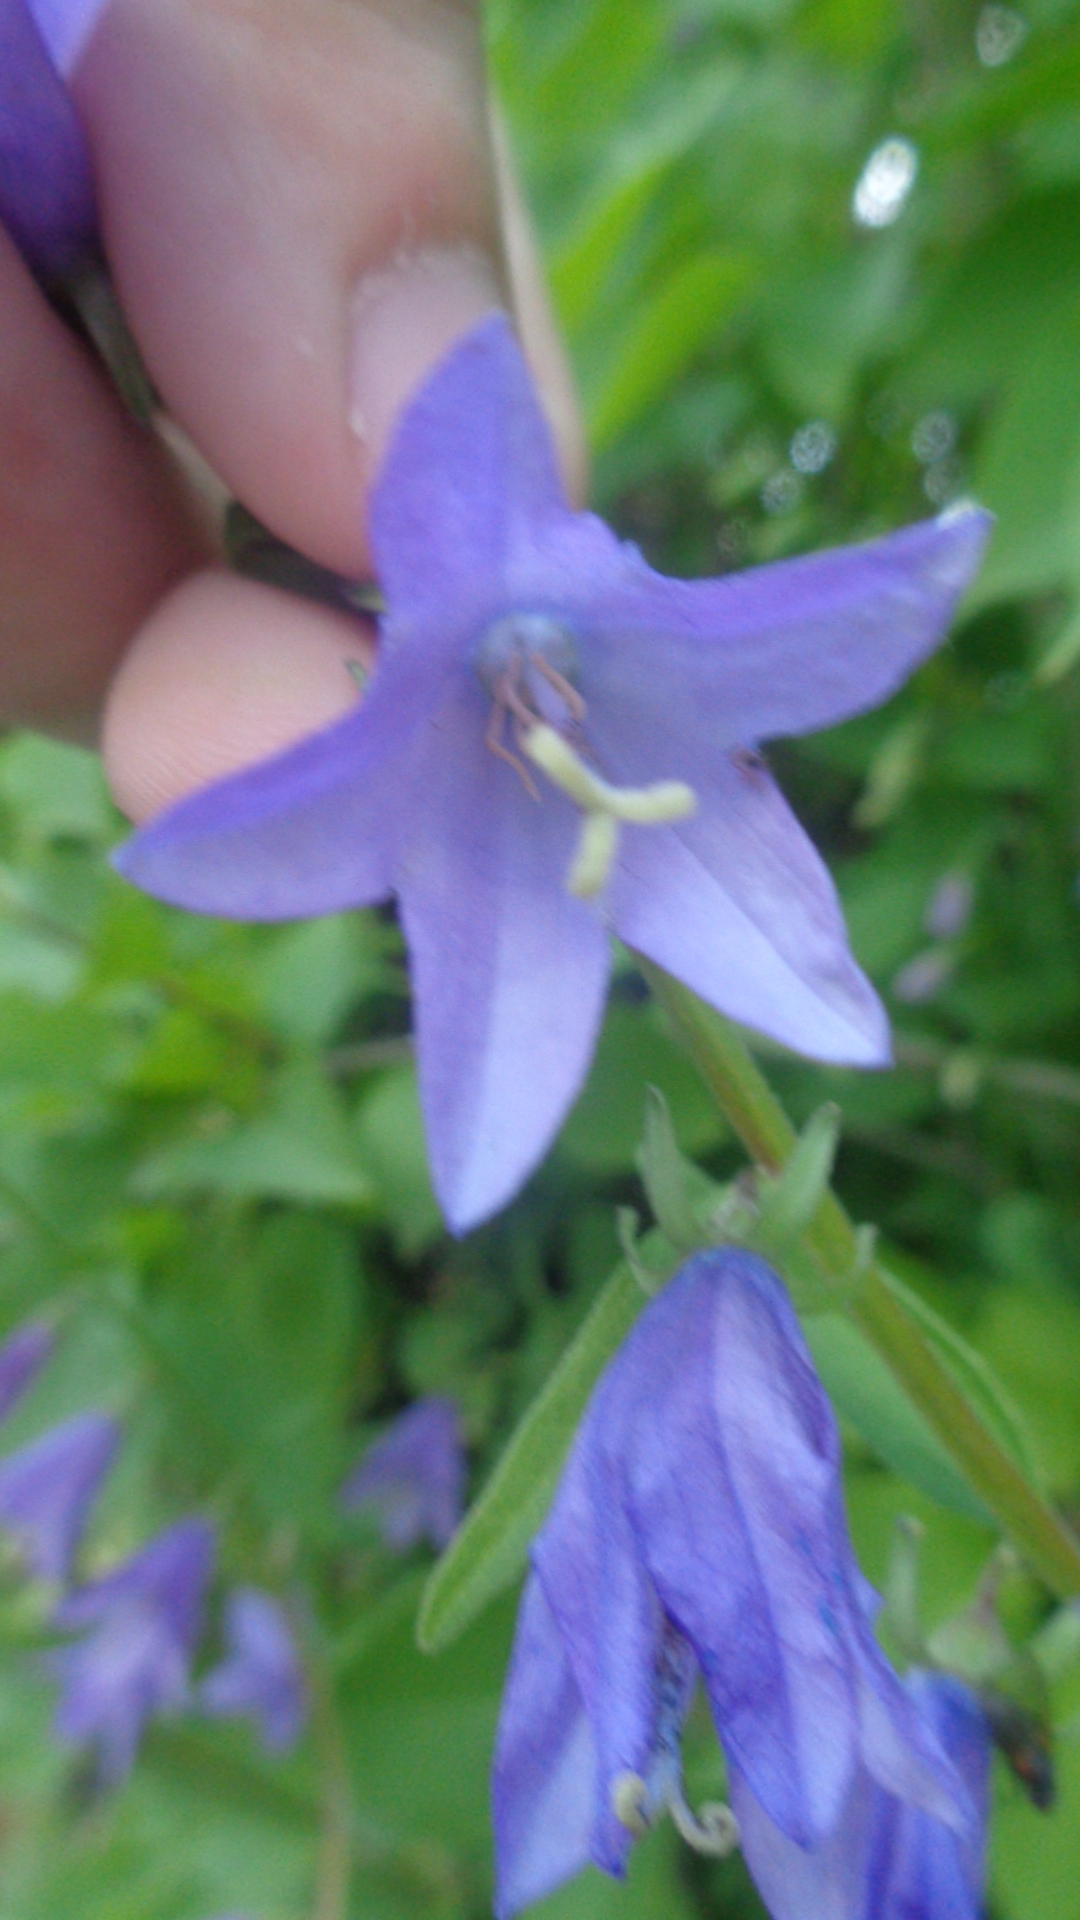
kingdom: Plantae
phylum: Tracheophyta
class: Magnoliopsida
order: Asterales
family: Campanulaceae
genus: Campanula
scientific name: Campanula rapunculoides
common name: Creeping bellflower
